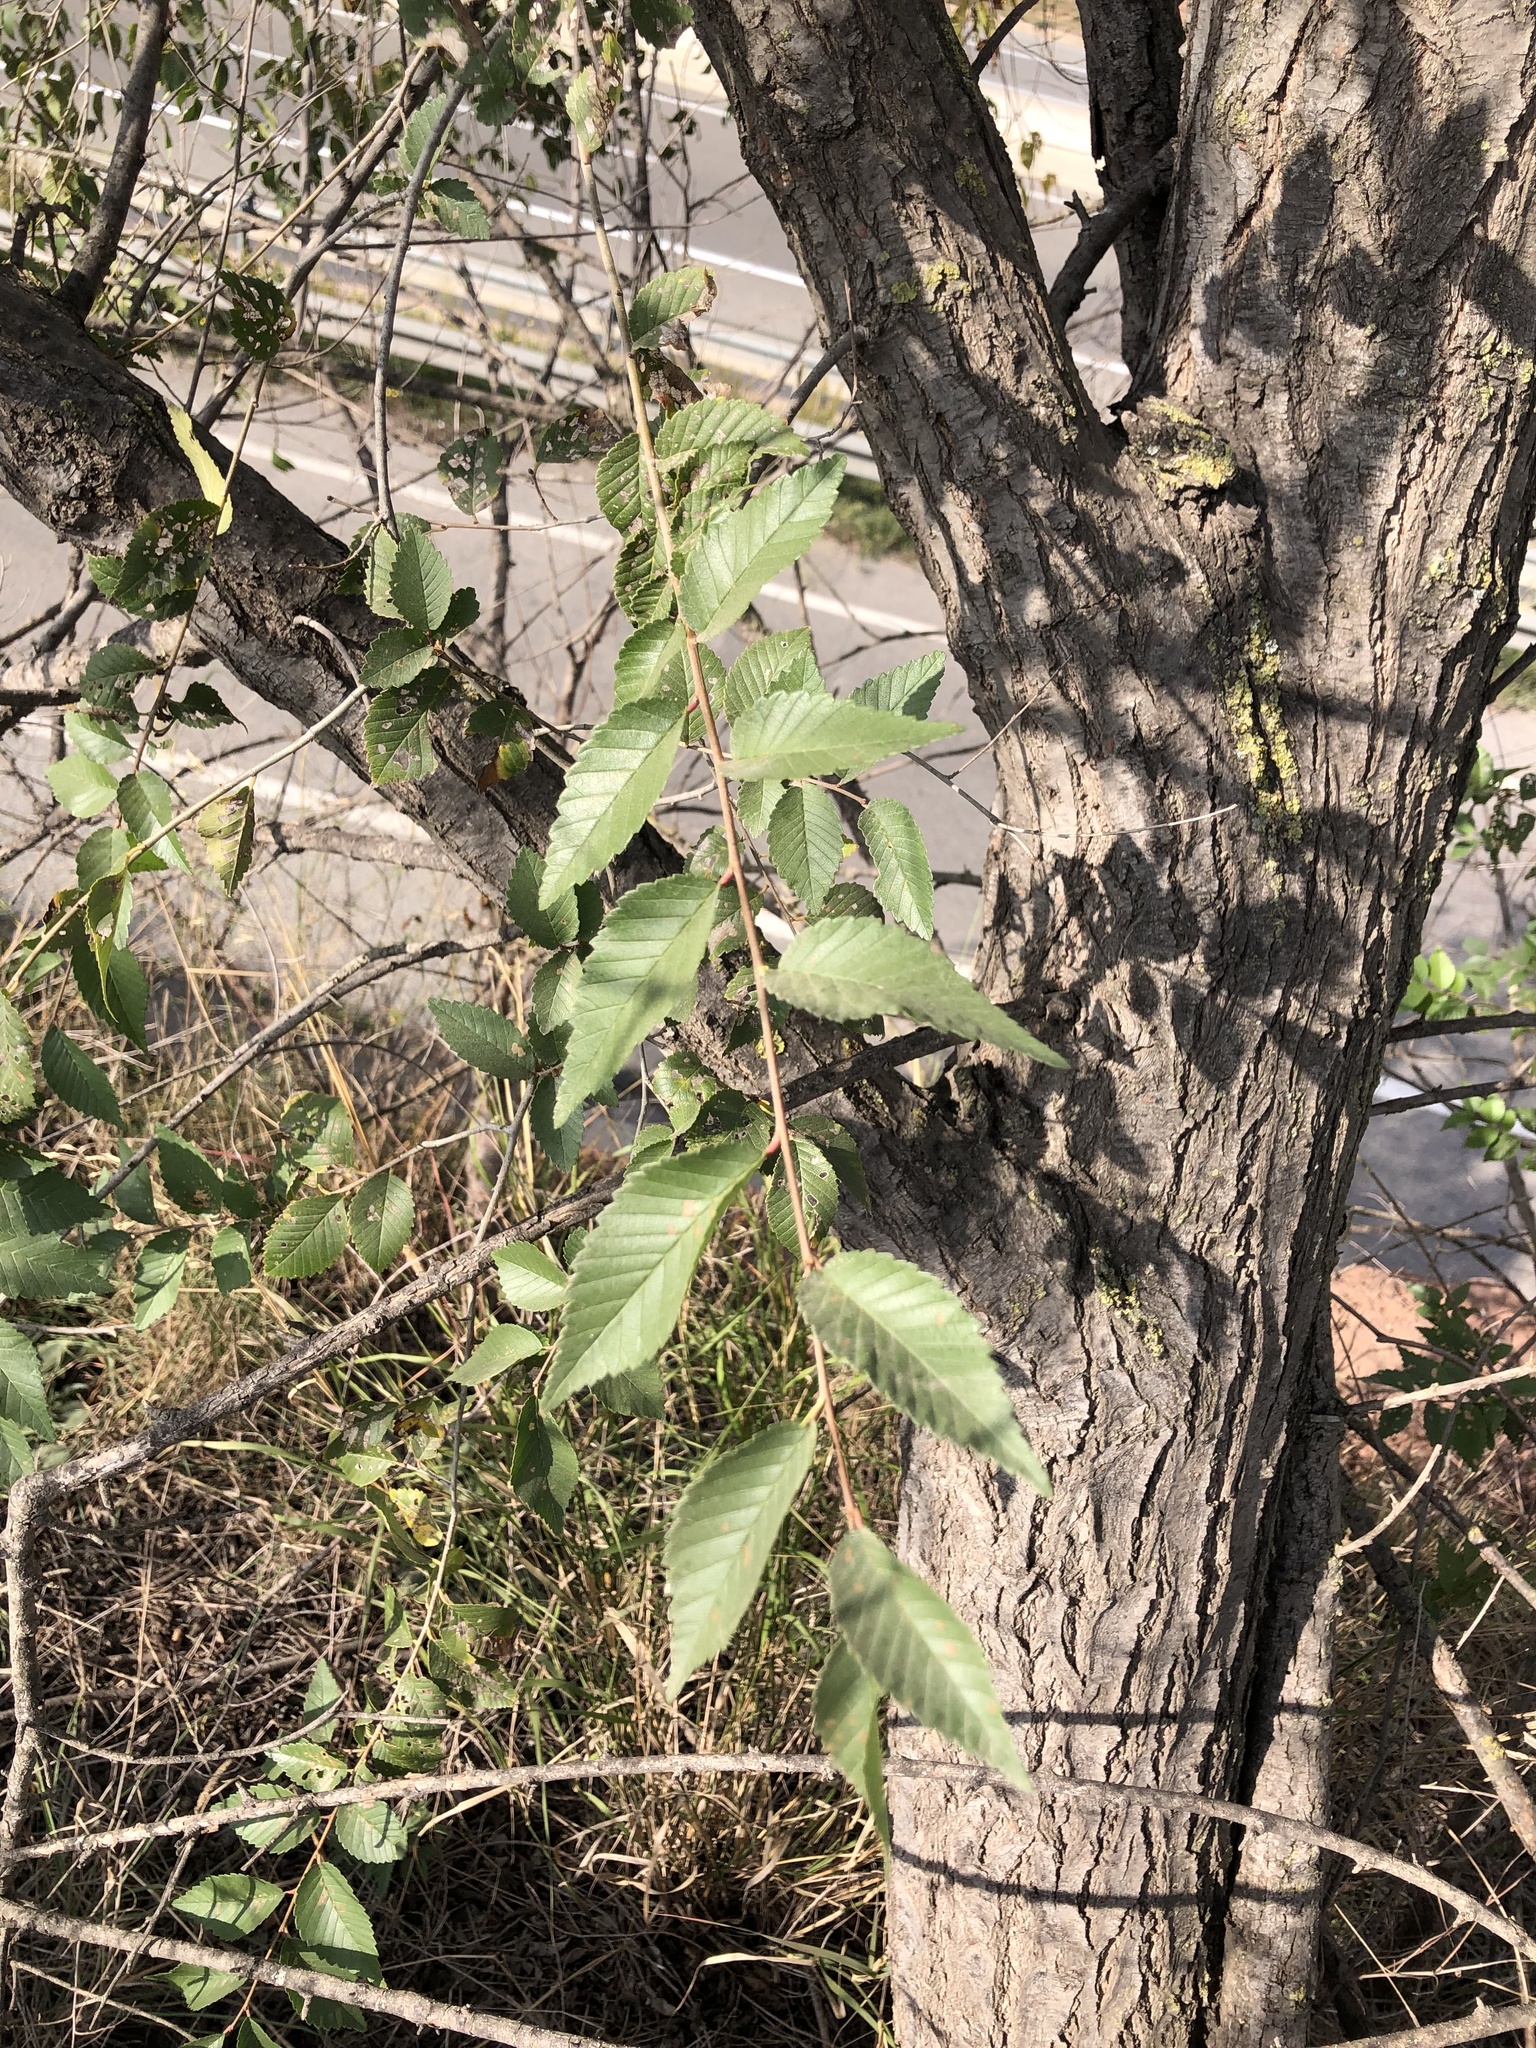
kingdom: Plantae
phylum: Tracheophyta
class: Magnoliopsida
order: Rosales
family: Ulmaceae
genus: Ulmus
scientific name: Ulmus pumila
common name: Siberian elm
